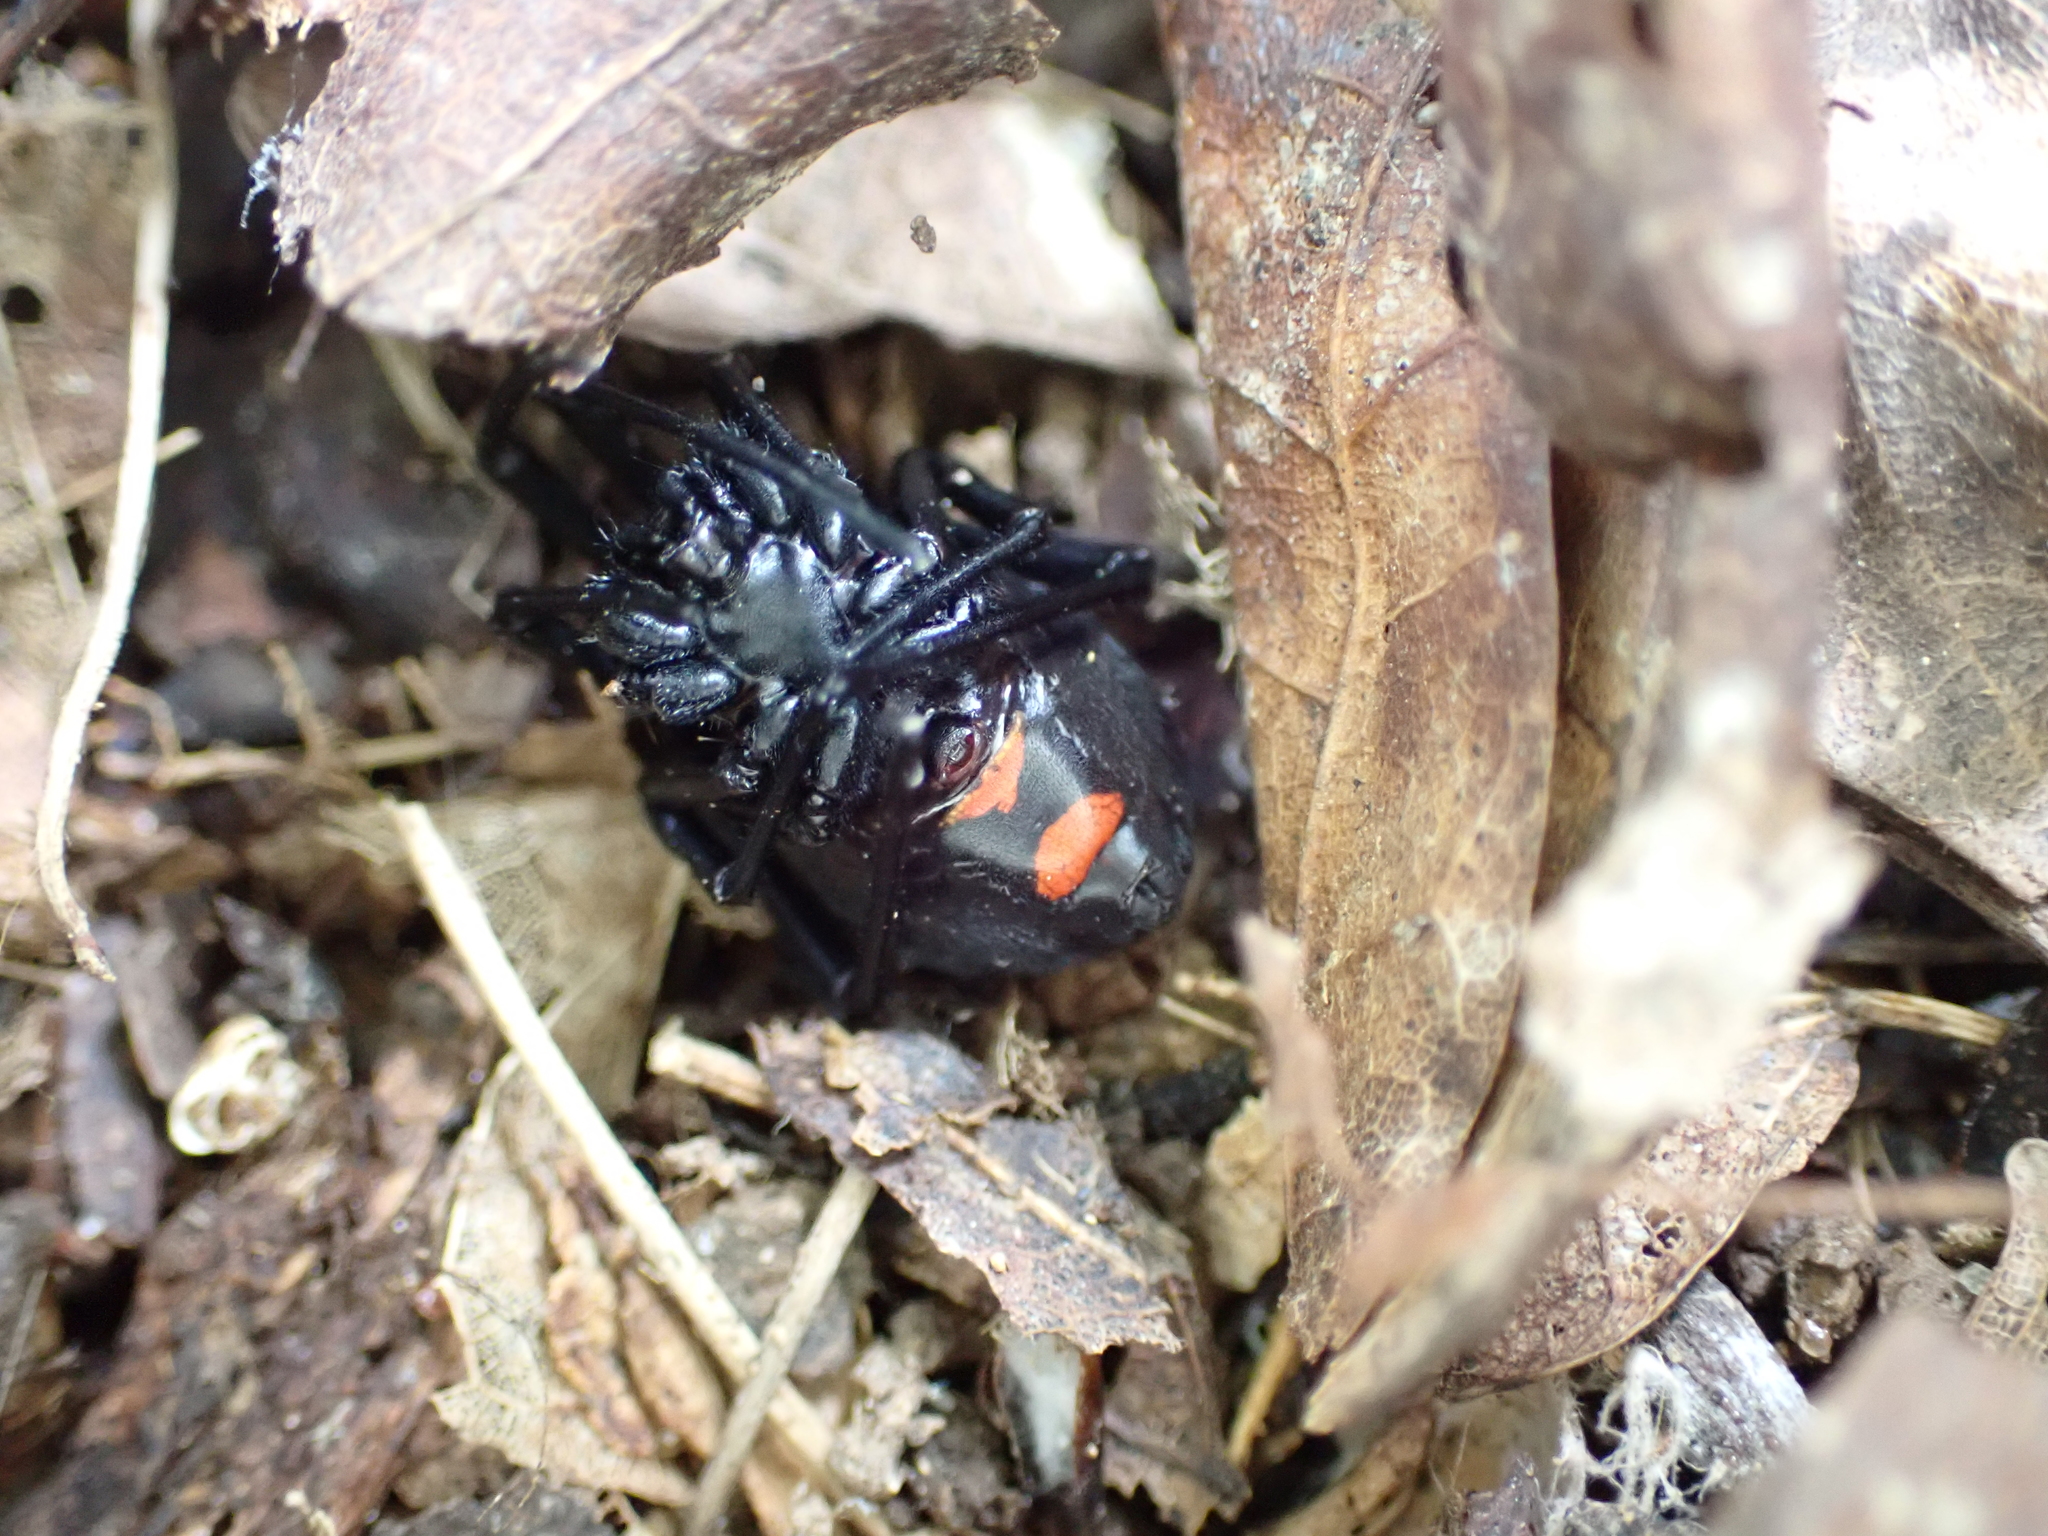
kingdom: Animalia
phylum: Arthropoda
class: Arachnida
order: Araneae
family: Theridiidae
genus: Latrodectus
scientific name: Latrodectus variolus
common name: Northern black widow
